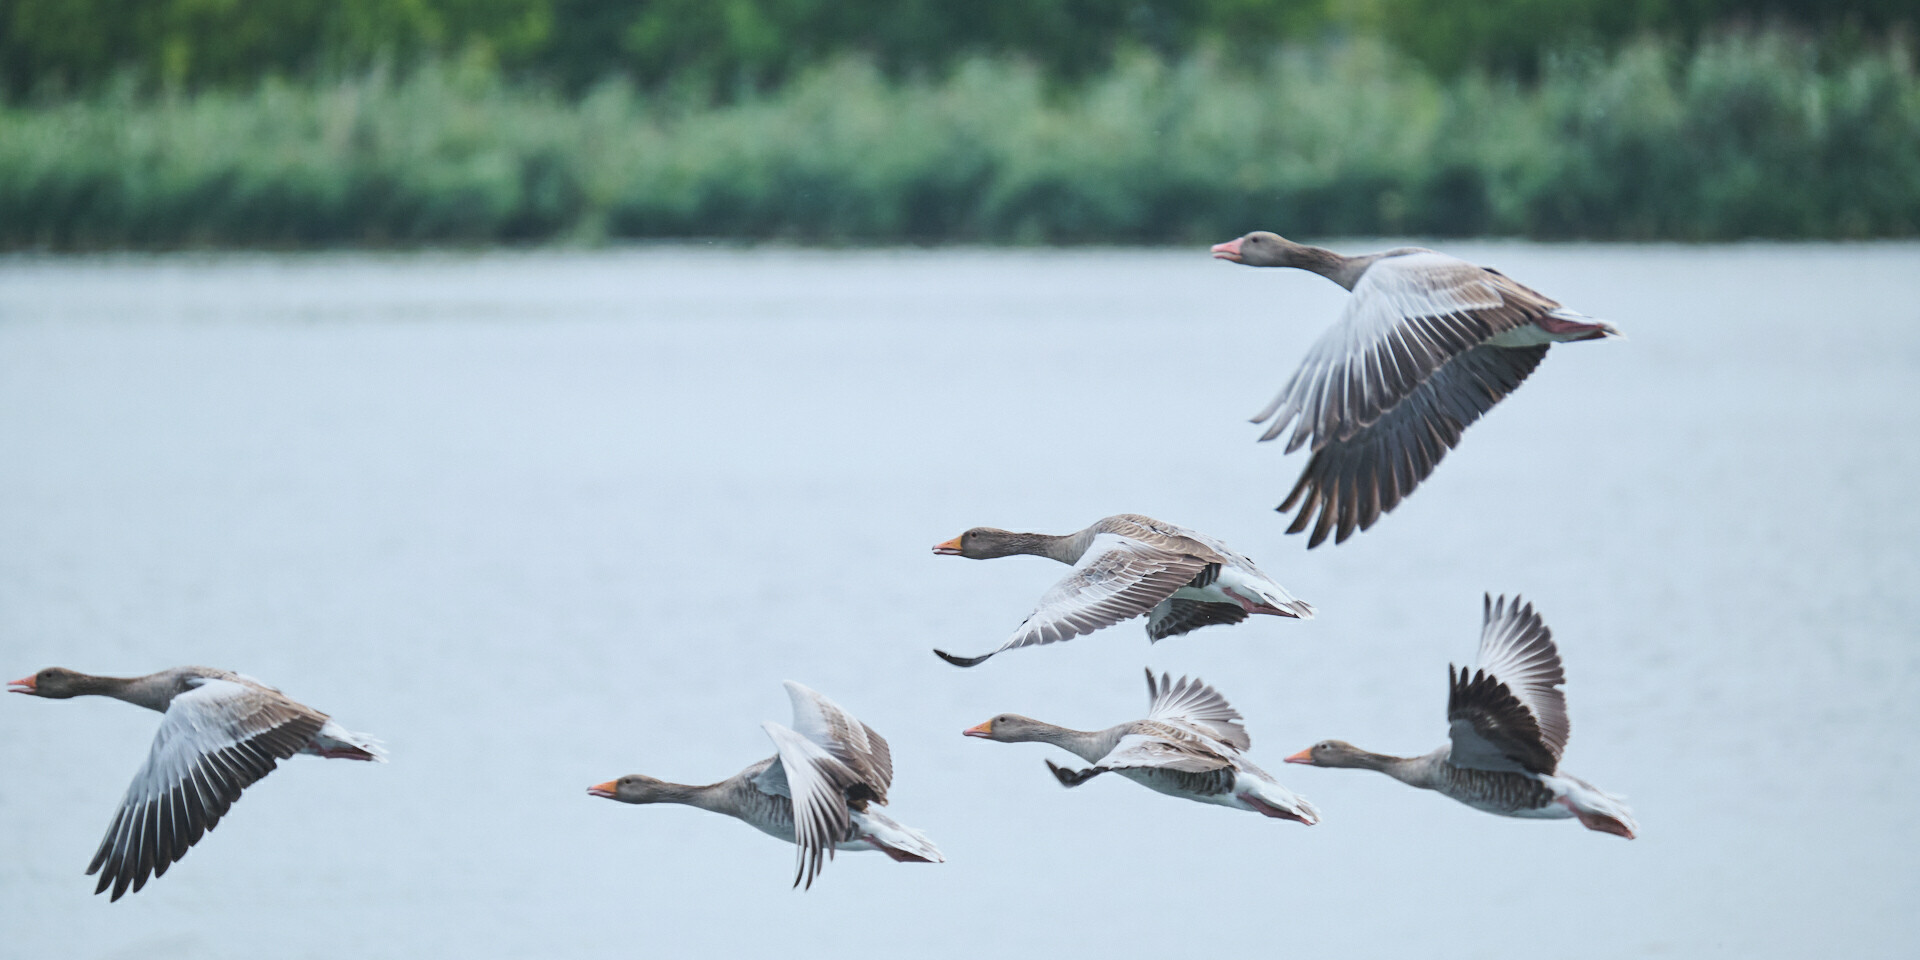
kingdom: Animalia
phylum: Chordata
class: Aves
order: Anseriformes
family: Anatidae
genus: Anser
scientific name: Anser anser
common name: Greylag goose
